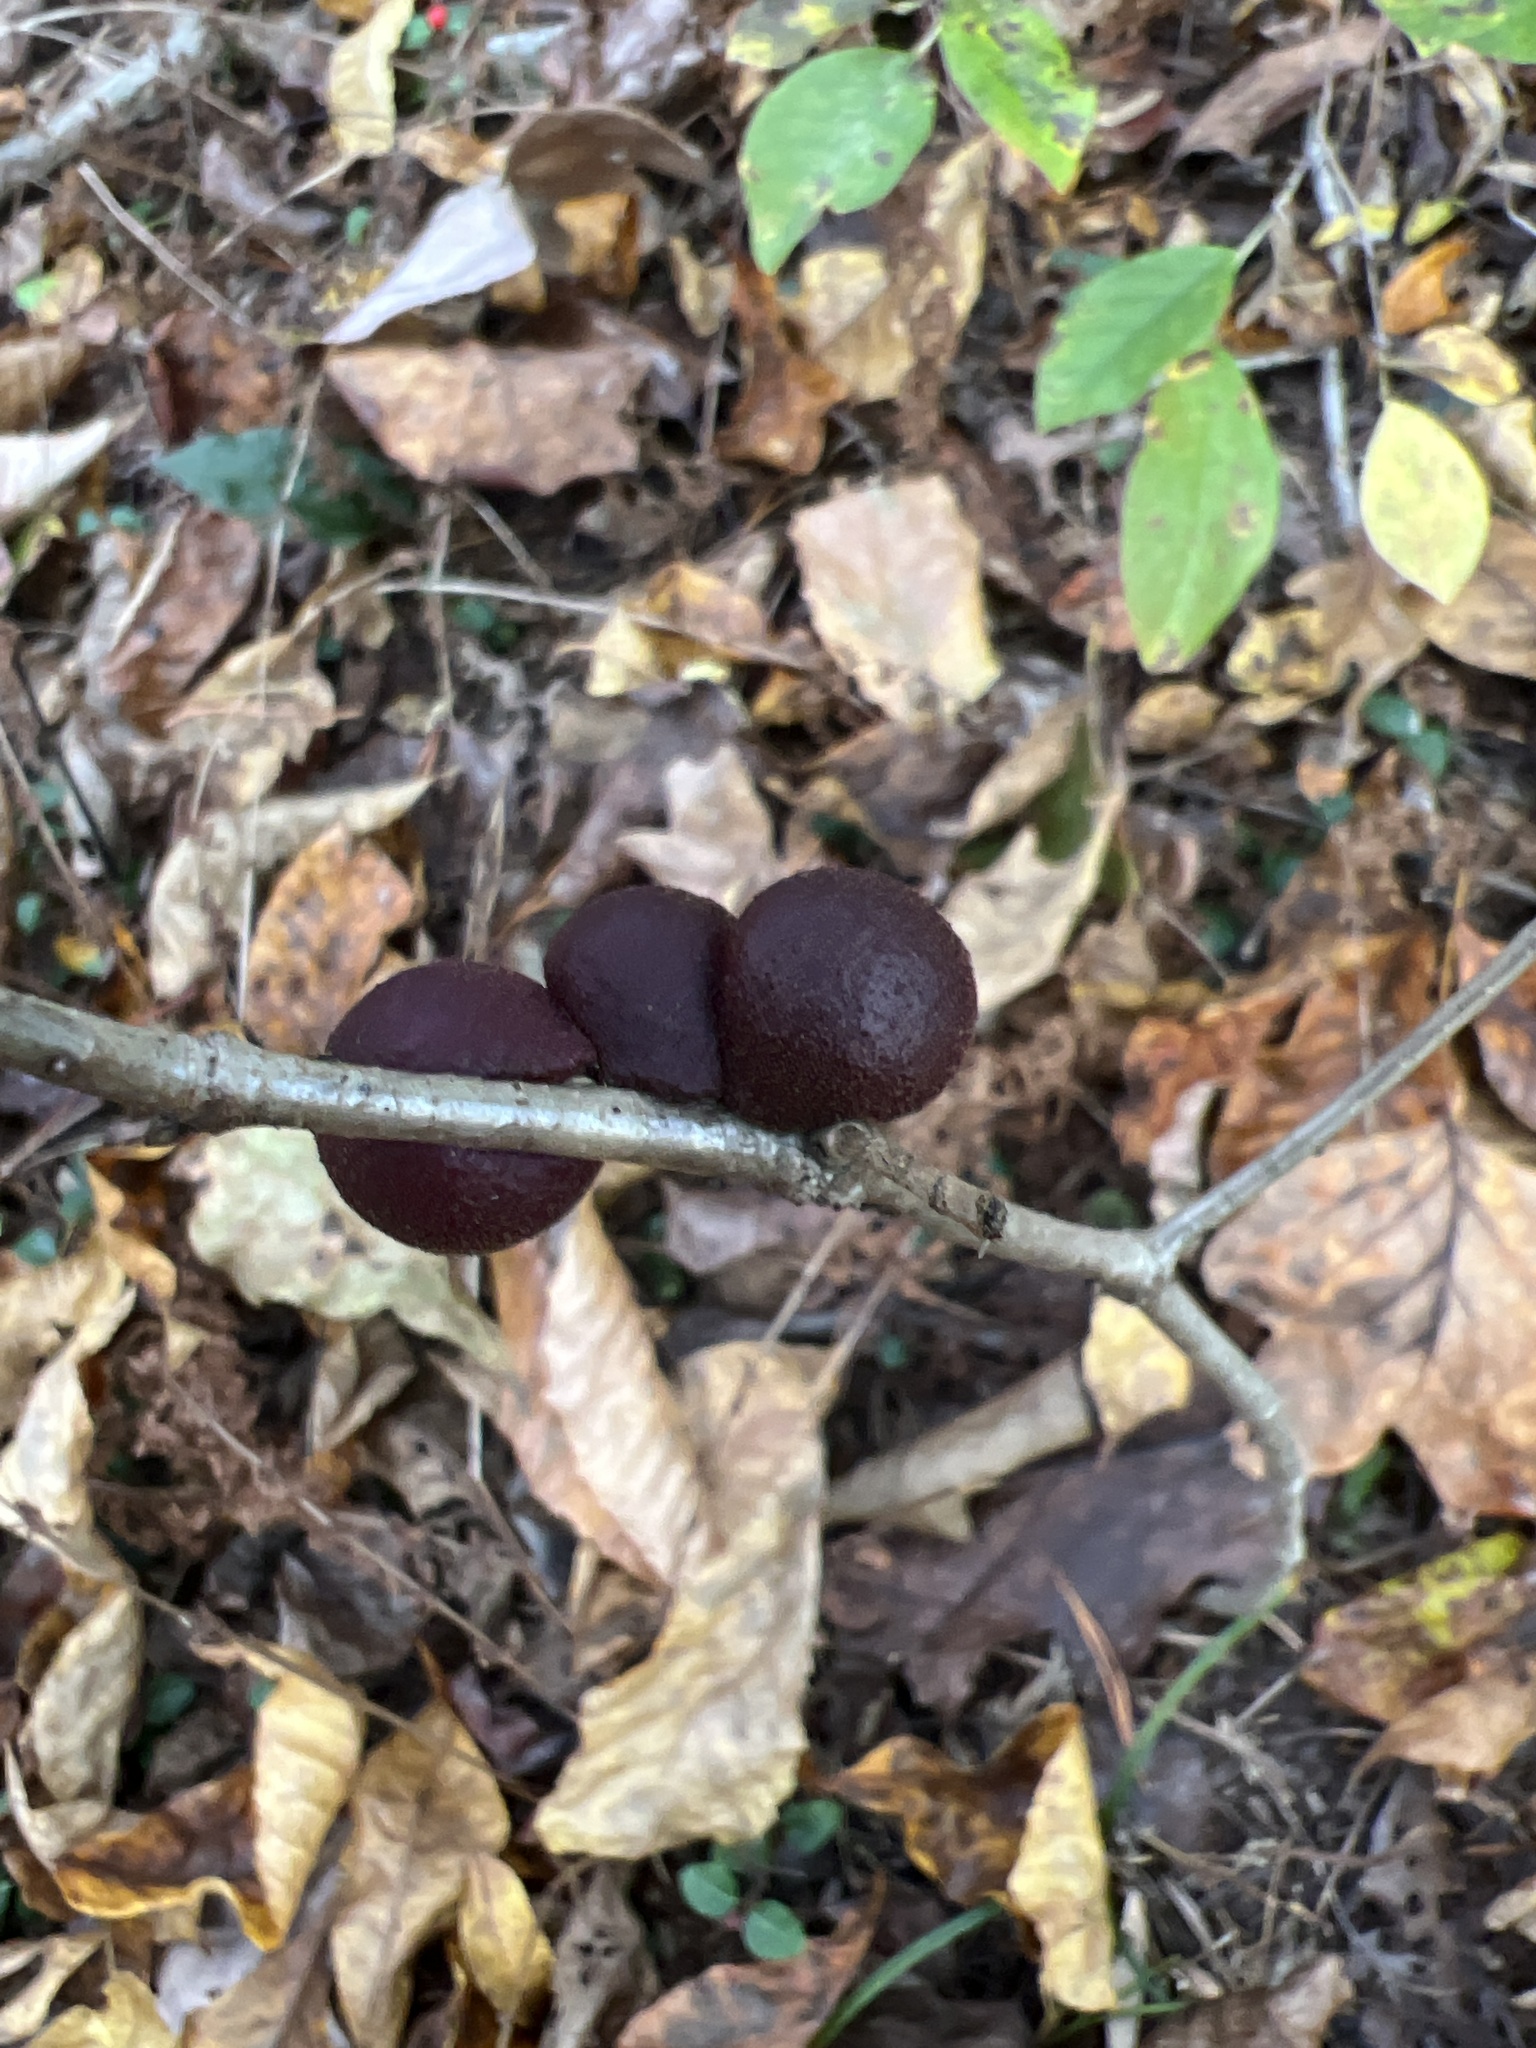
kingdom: Animalia
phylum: Arthropoda
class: Insecta
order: Hymenoptera
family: Cynipidae
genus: Disholcaspis
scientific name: Disholcaspis
